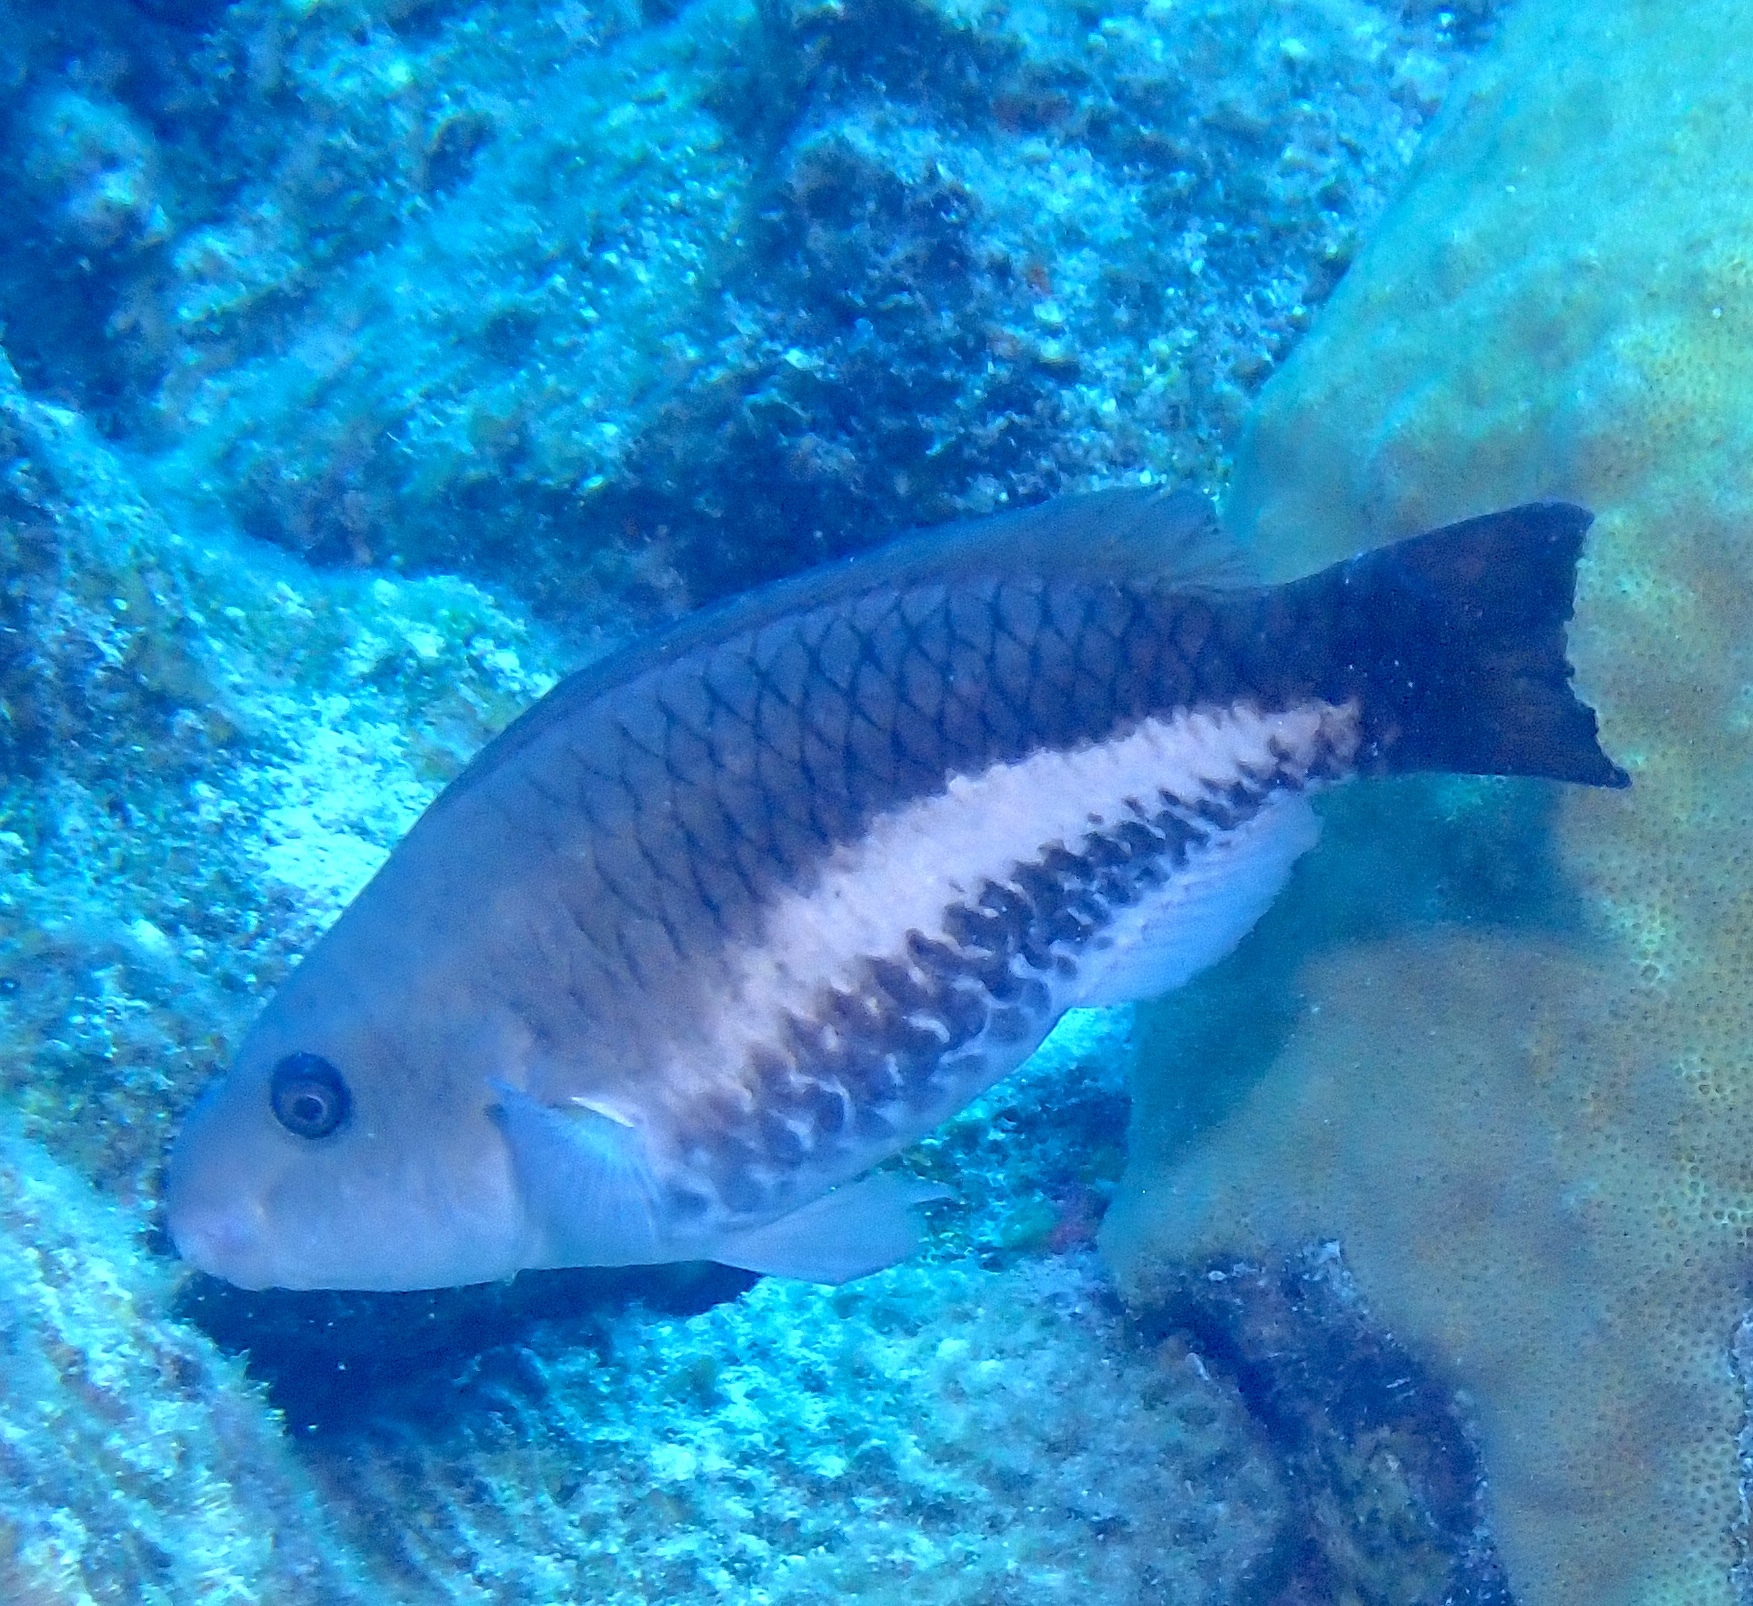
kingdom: Animalia
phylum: Chordata
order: Perciformes
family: Scaridae
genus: Scarus
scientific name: Scarus vetula
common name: Queen parrotfish
